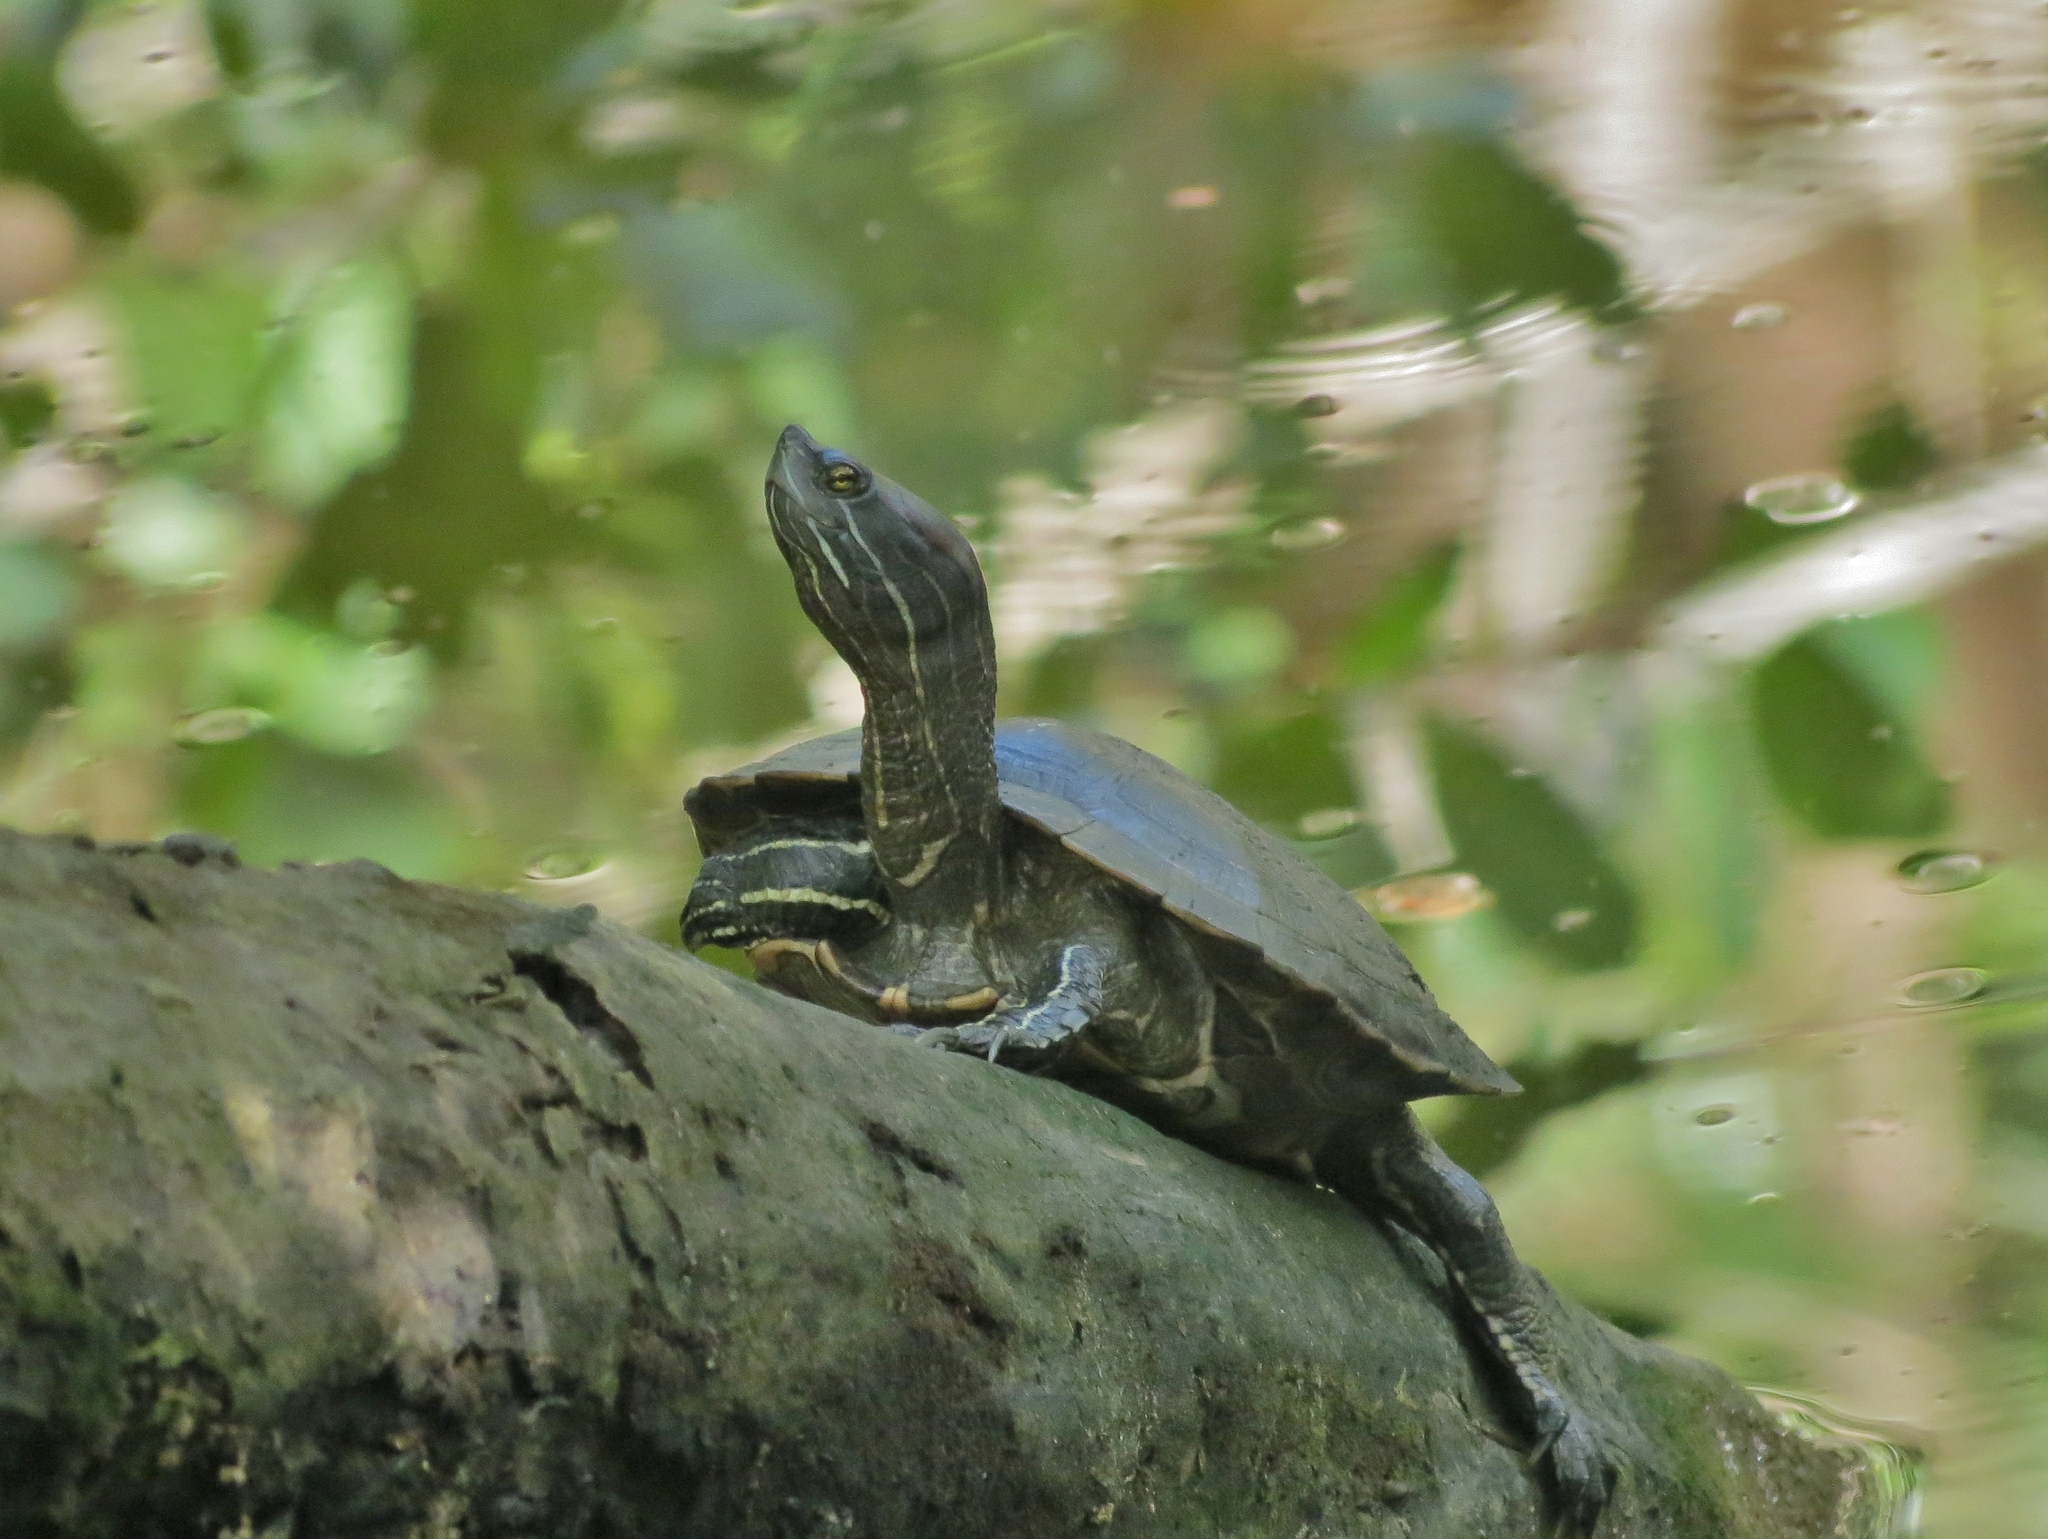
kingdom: Animalia
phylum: Chordata
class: Testudines
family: Emydidae
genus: Trachemys
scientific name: Trachemys stejnegeri
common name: Puerto rican slider
